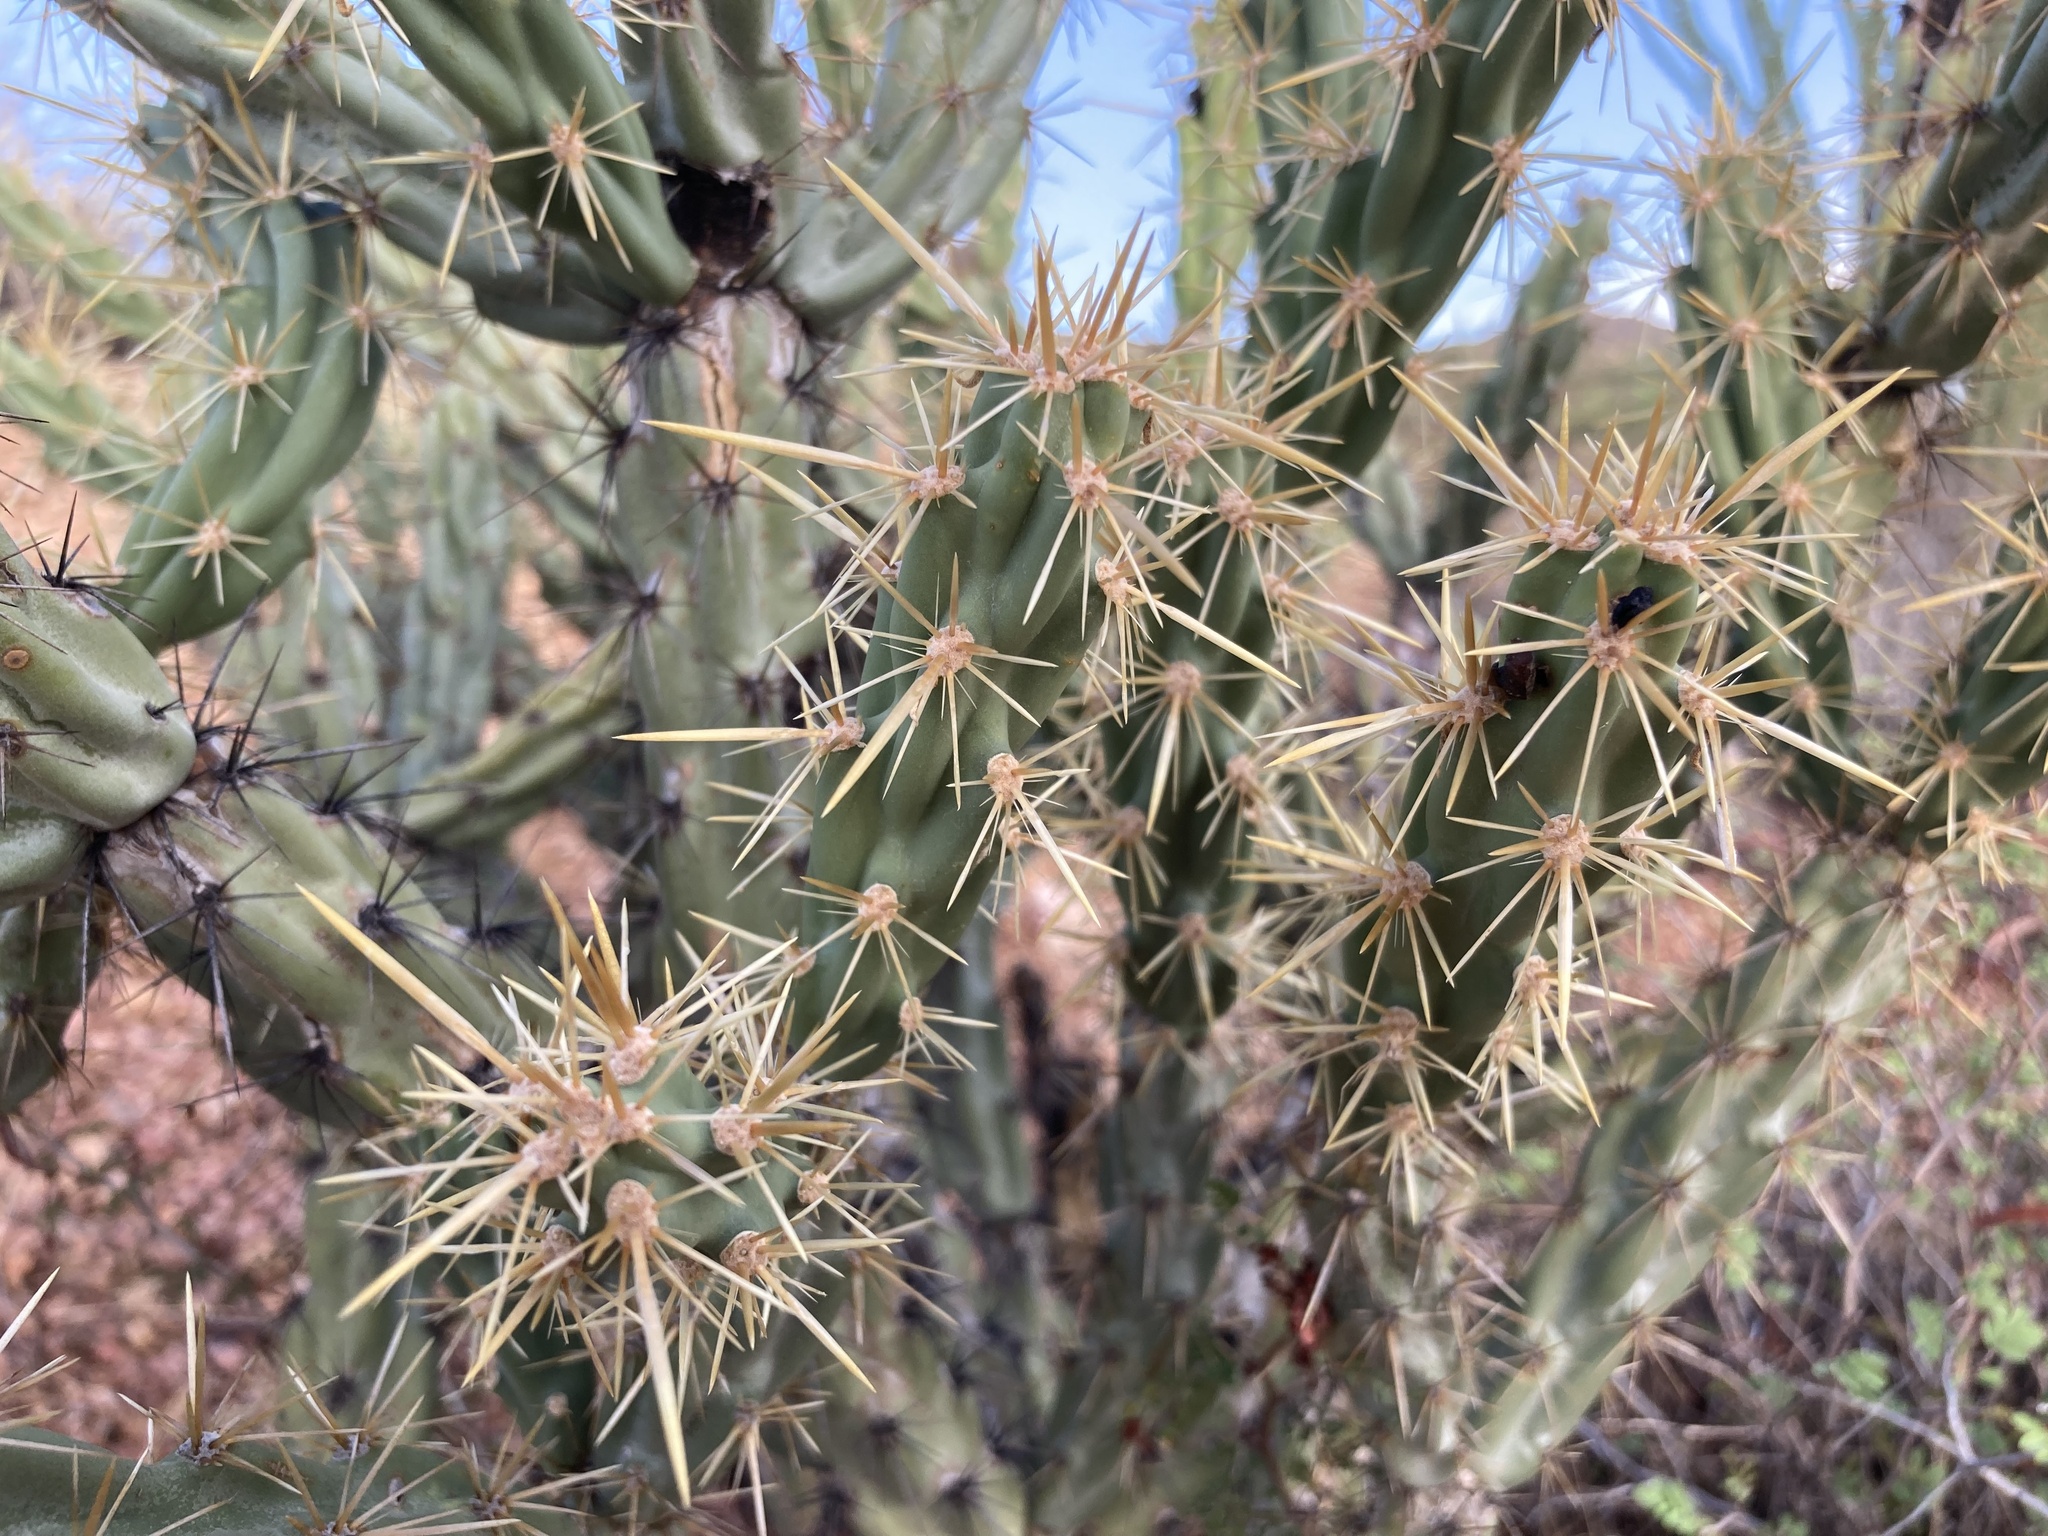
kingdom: Plantae
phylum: Tracheophyta
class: Magnoliopsida
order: Caryophyllales
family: Cactaceae
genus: Cylindropuntia
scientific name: Cylindropuntia acanthocarpa
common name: Buckhorn cholla
